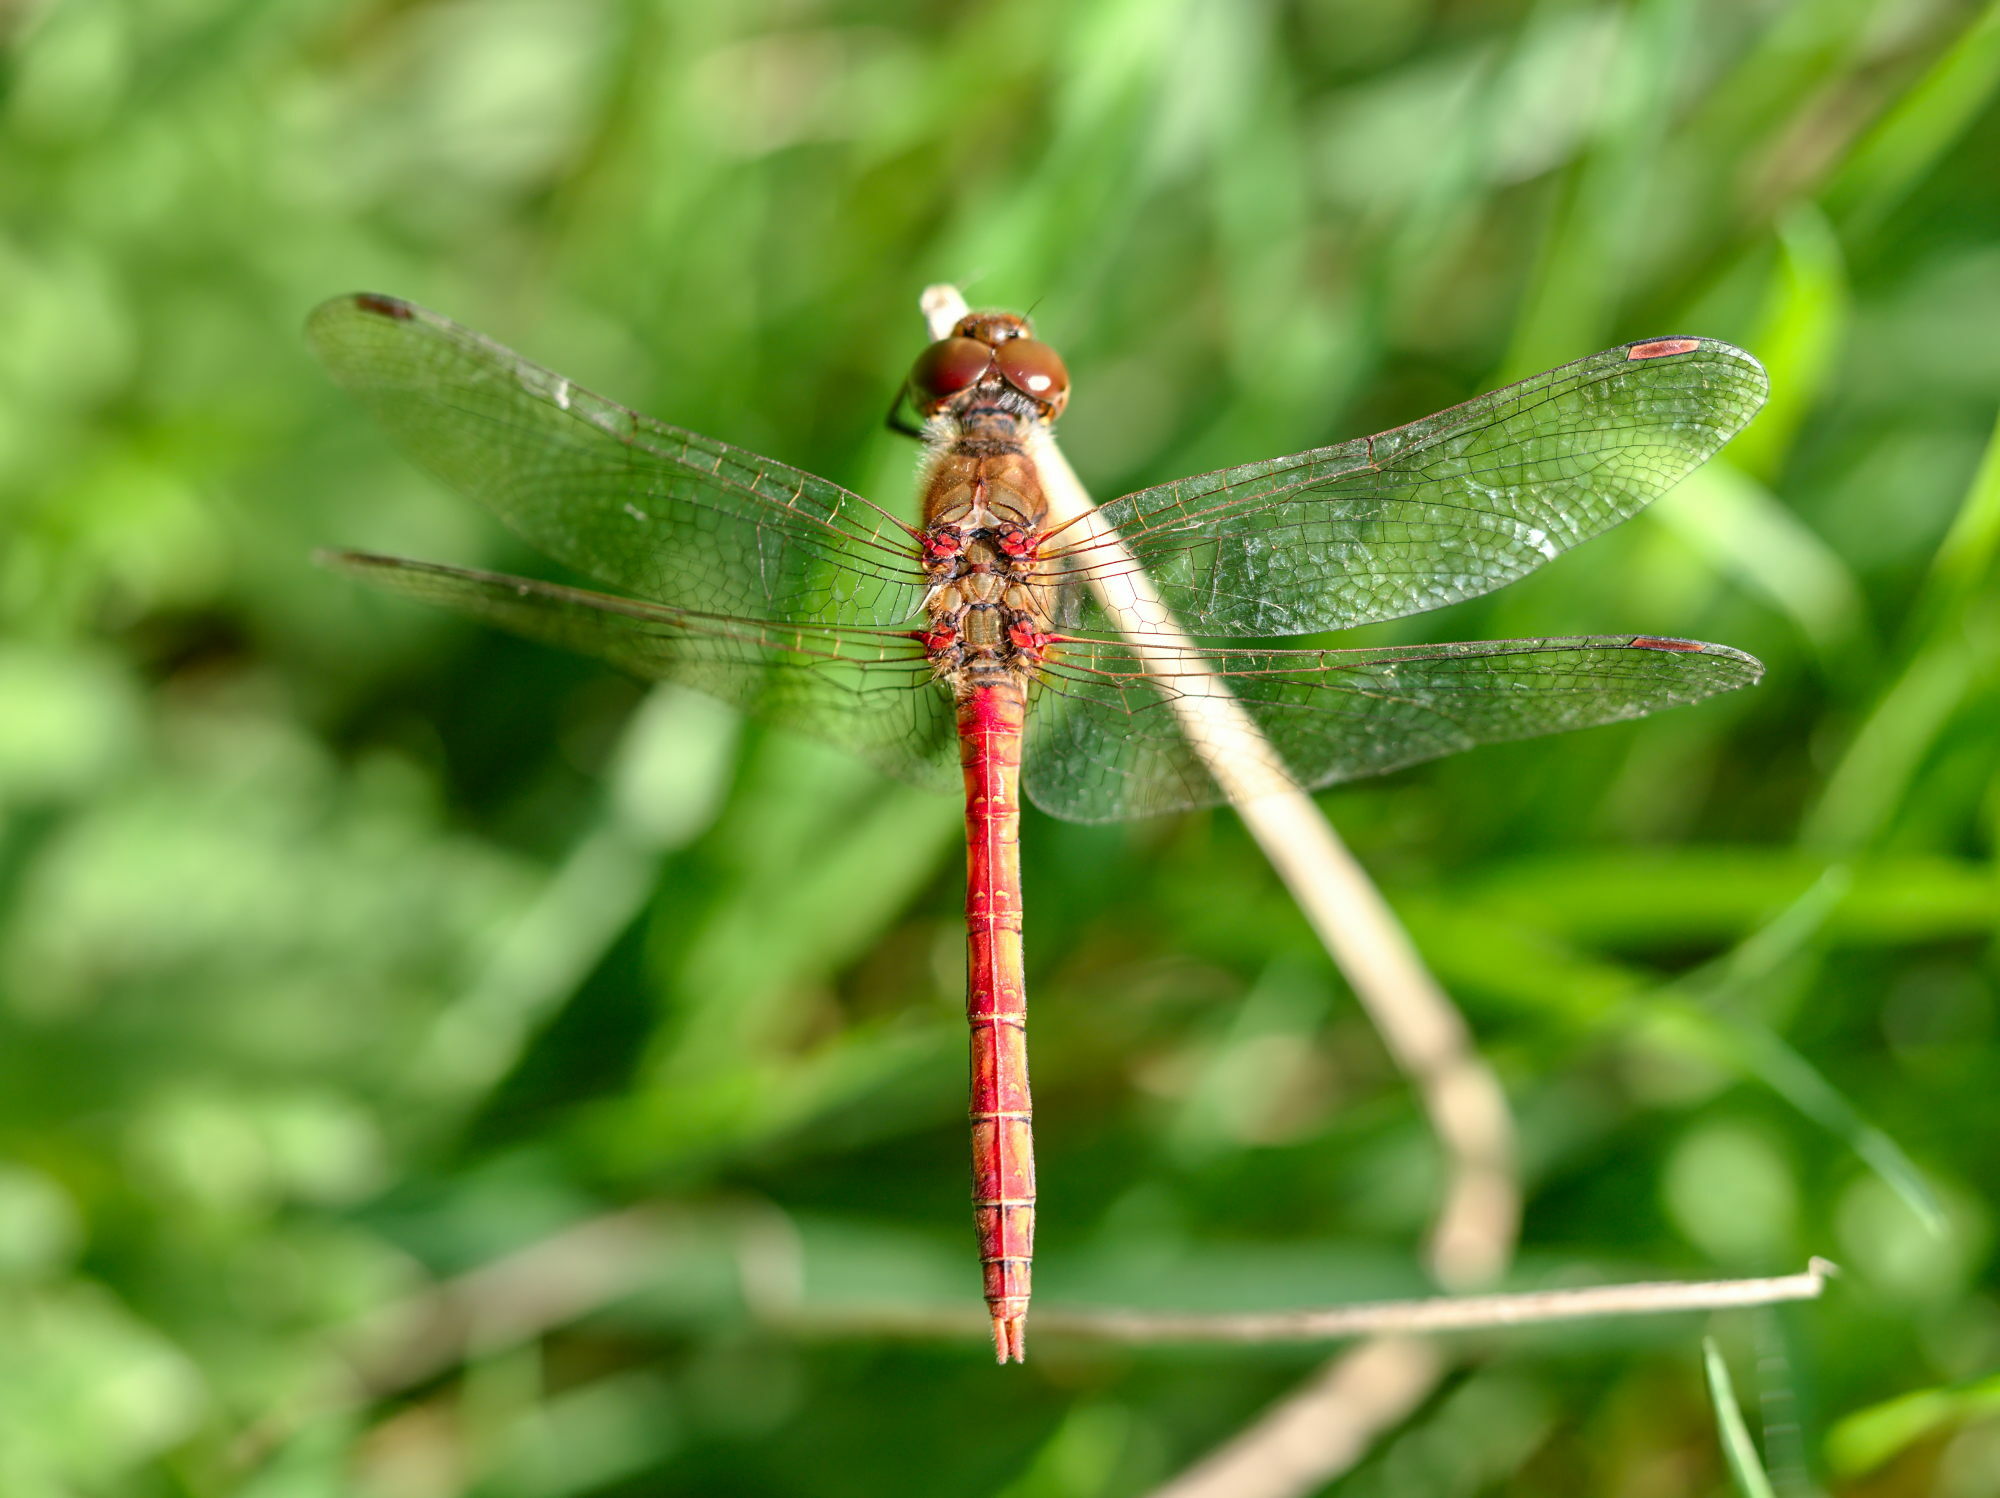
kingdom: Animalia
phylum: Arthropoda
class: Insecta
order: Odonata
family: Libellulidae
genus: Sympetrum
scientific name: Sympetrum striolatum
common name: Common darter
